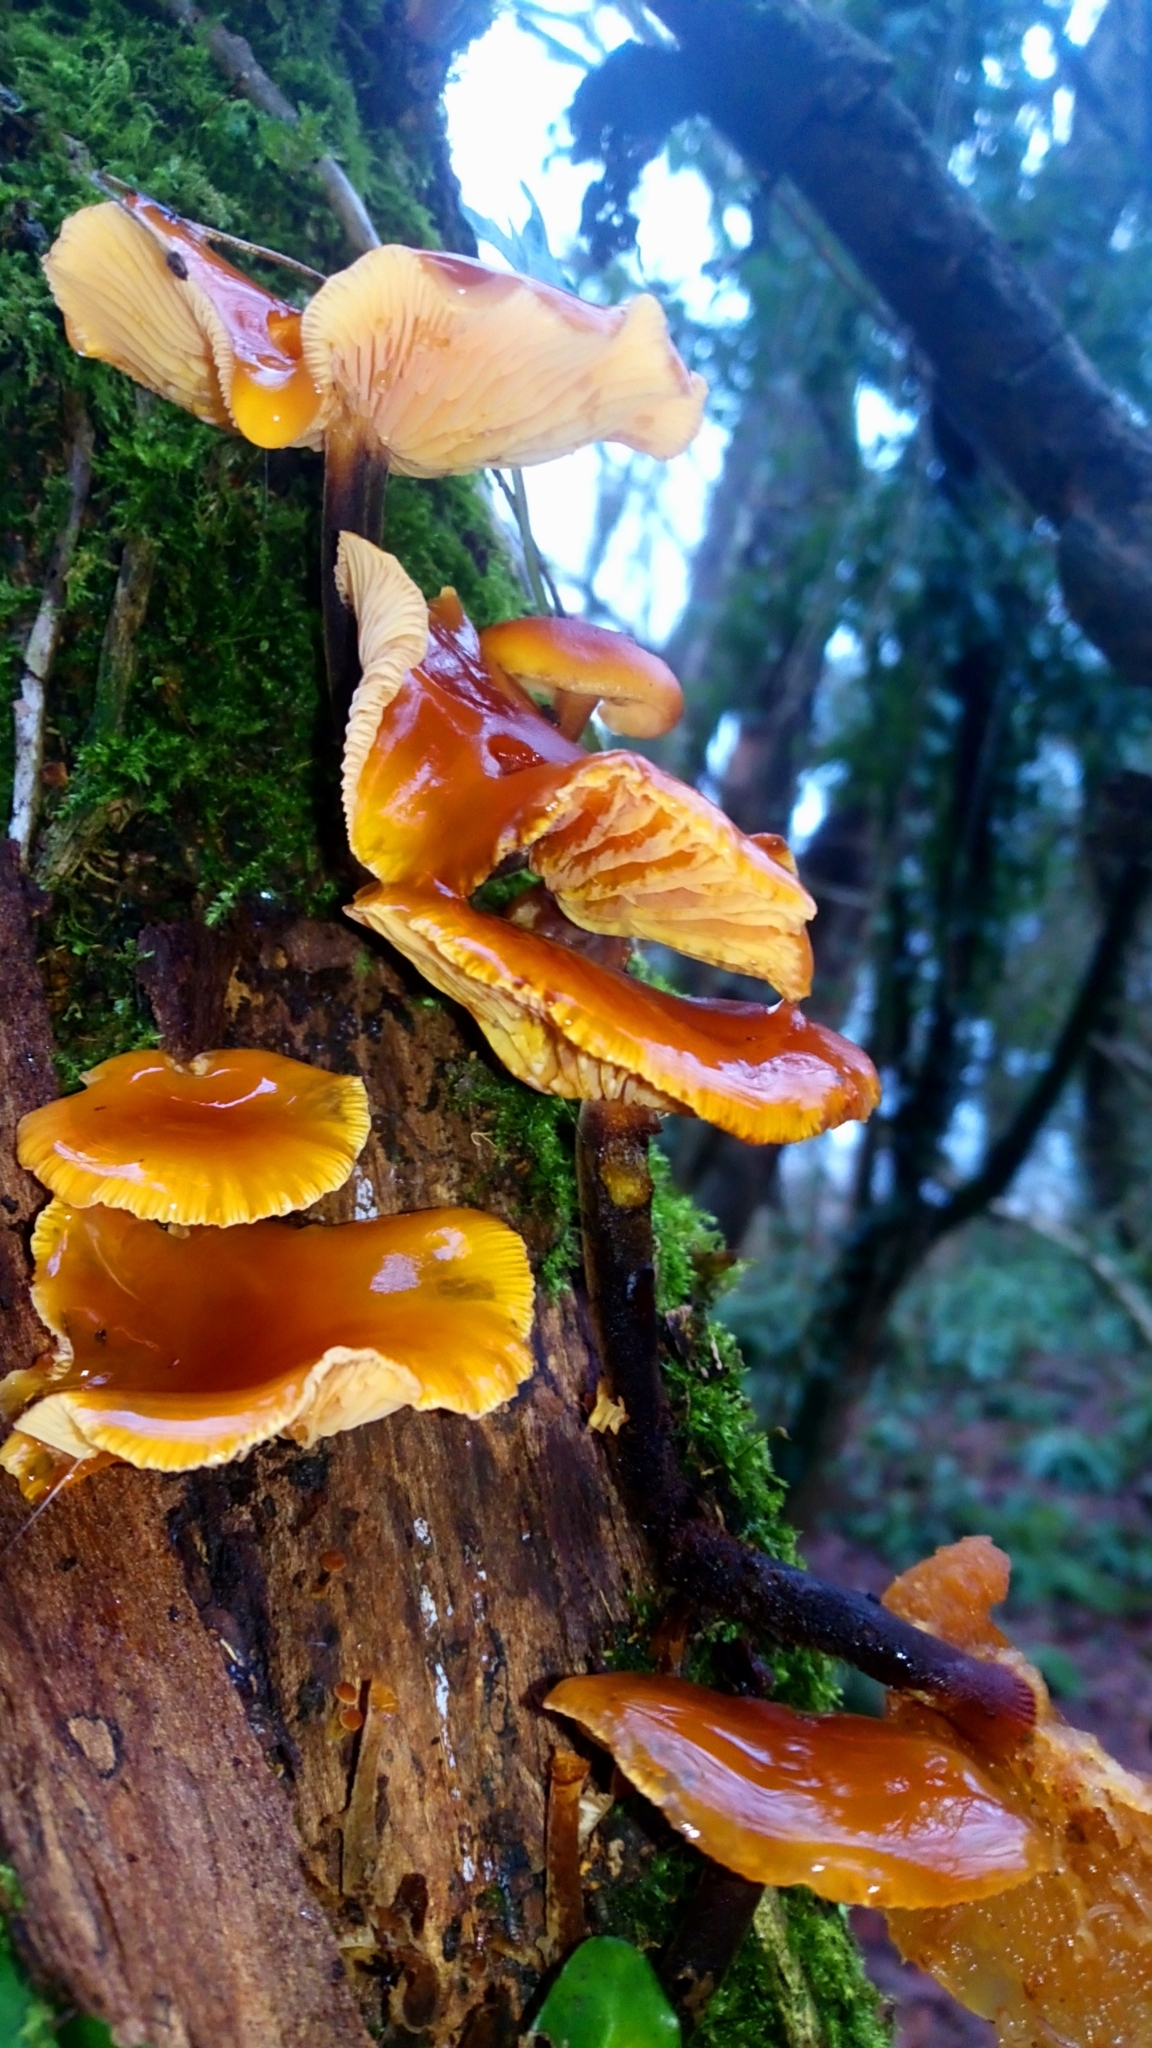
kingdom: Fungi
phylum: Basidiomycota
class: Agaricomycetes
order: Agaricales
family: Physalacriaceae
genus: Flammulina
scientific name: Flammulina
